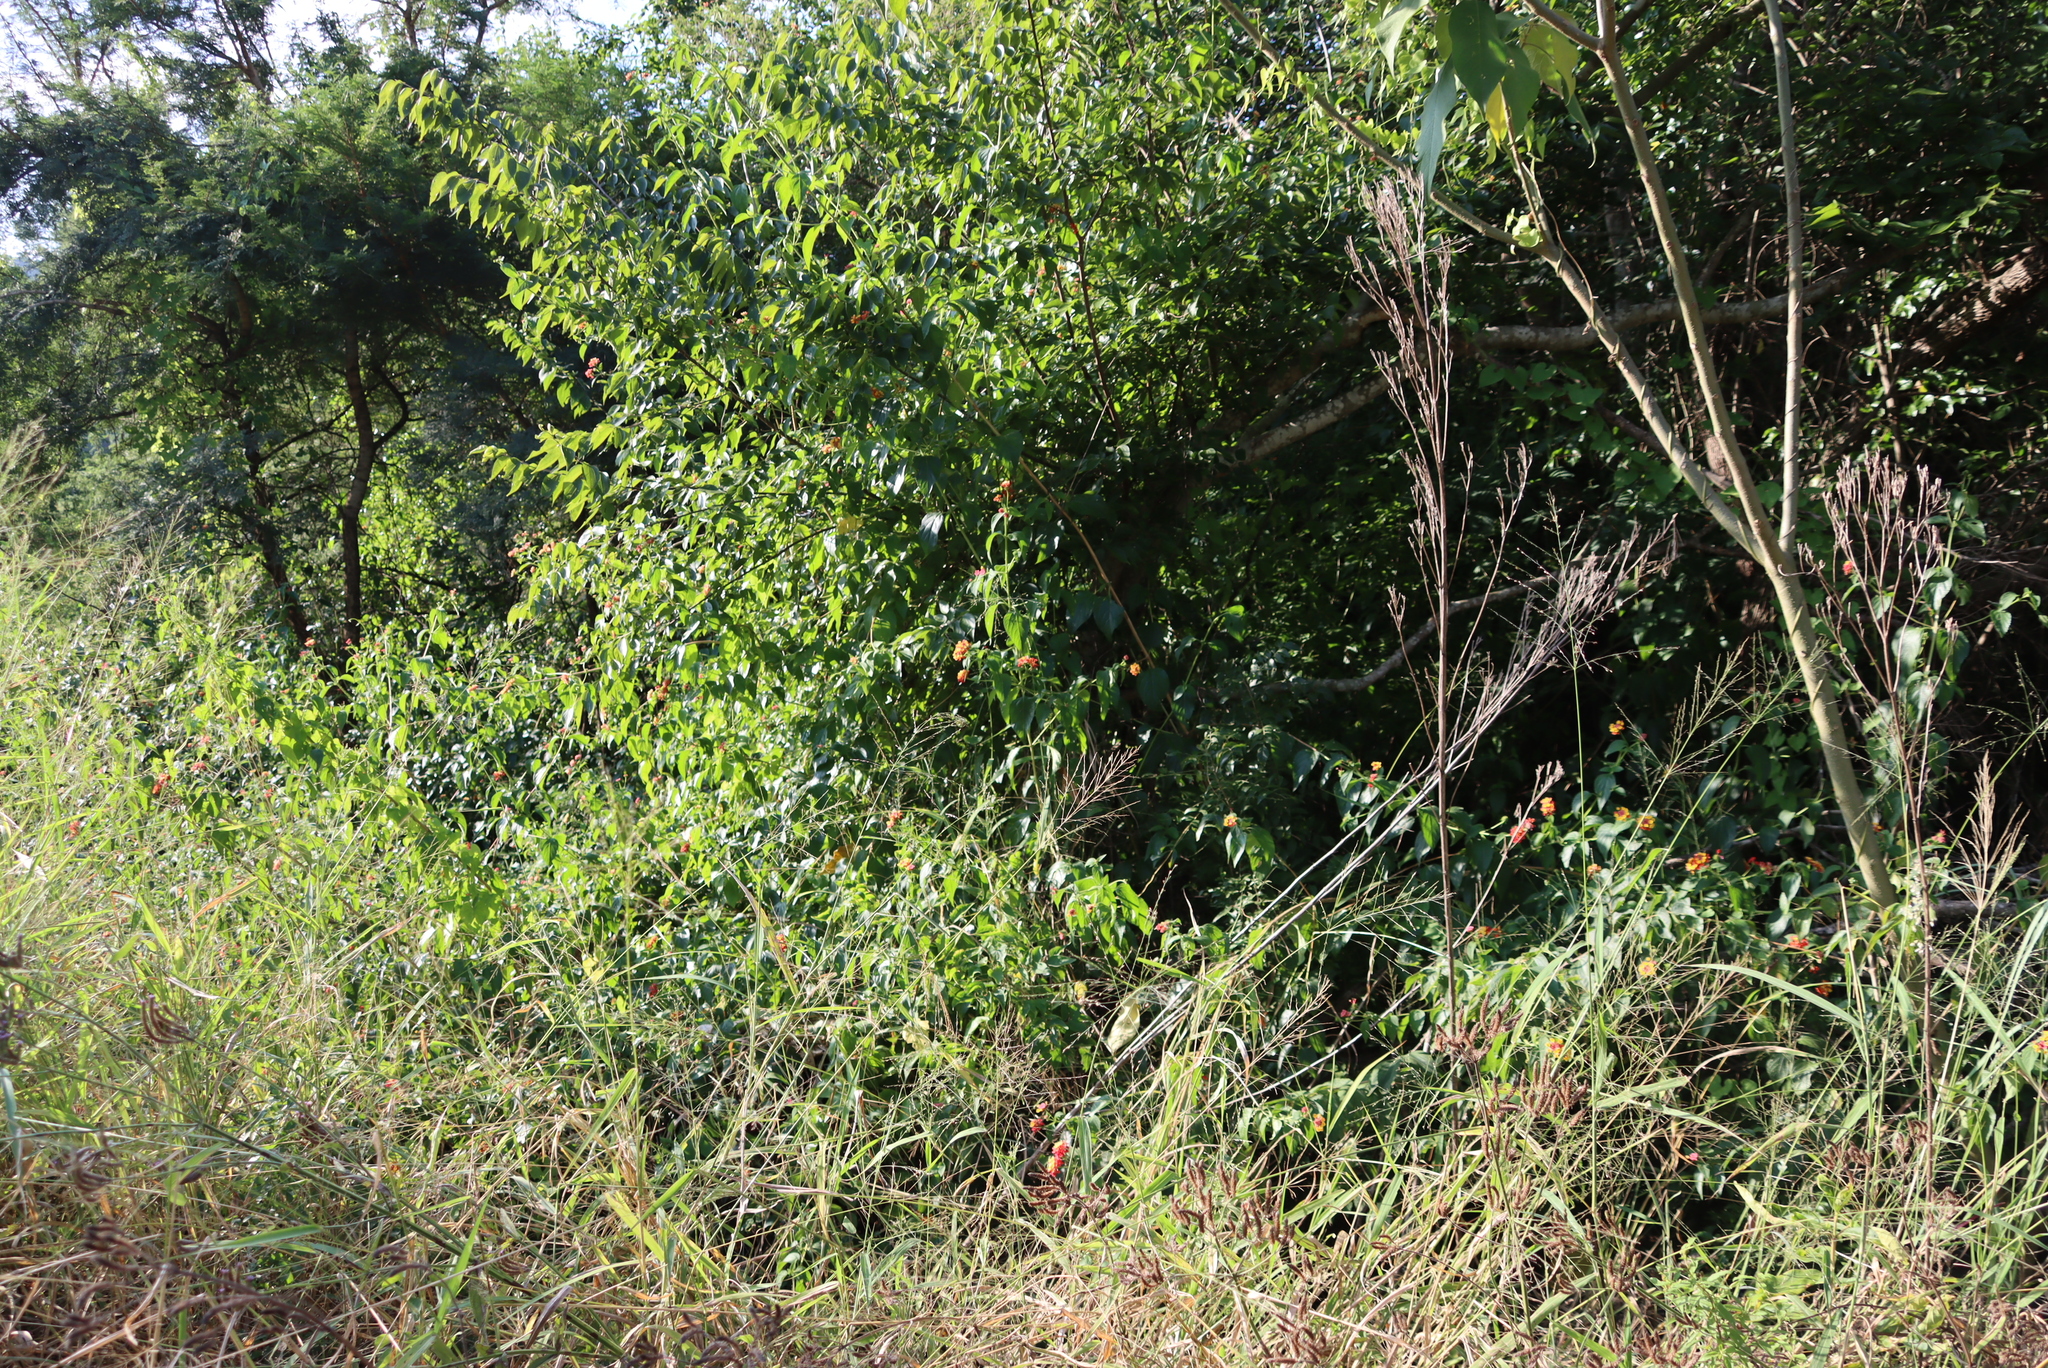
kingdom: Plantae
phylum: Tracheophyta
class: Magnoliopsida
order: Lamiales
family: Verbenaceae
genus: Lantana
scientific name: Lantana camara
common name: Lantana
